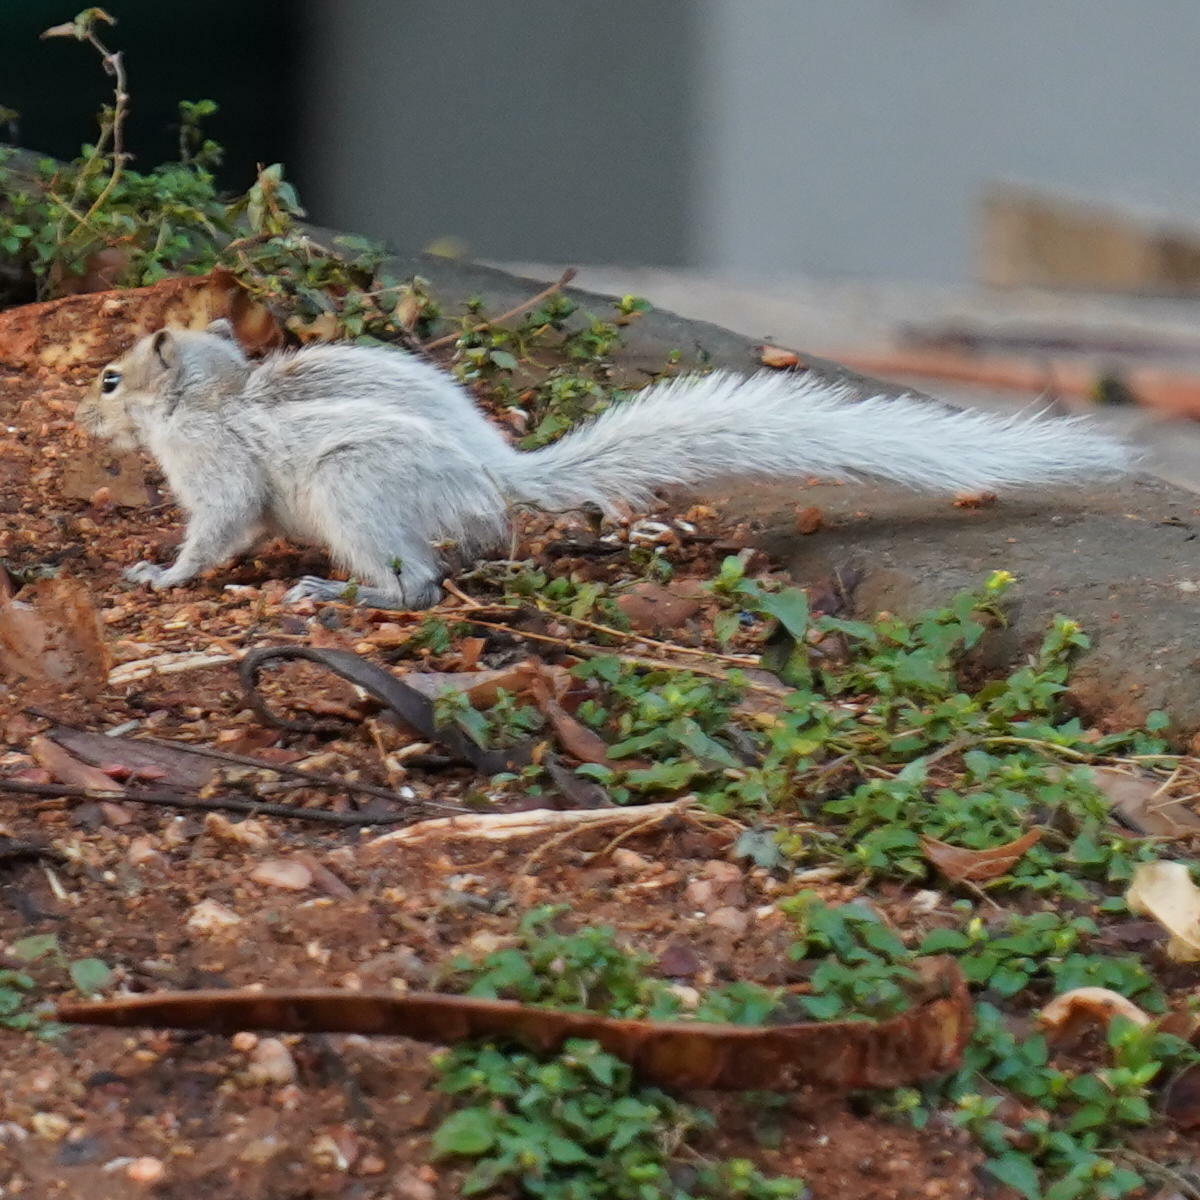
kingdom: Animalia
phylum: Chordata
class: Mammalia
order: Rodentia
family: Sciuridae
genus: Funambulus
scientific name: Funambulus palmarum
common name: Indian palm squirrel
